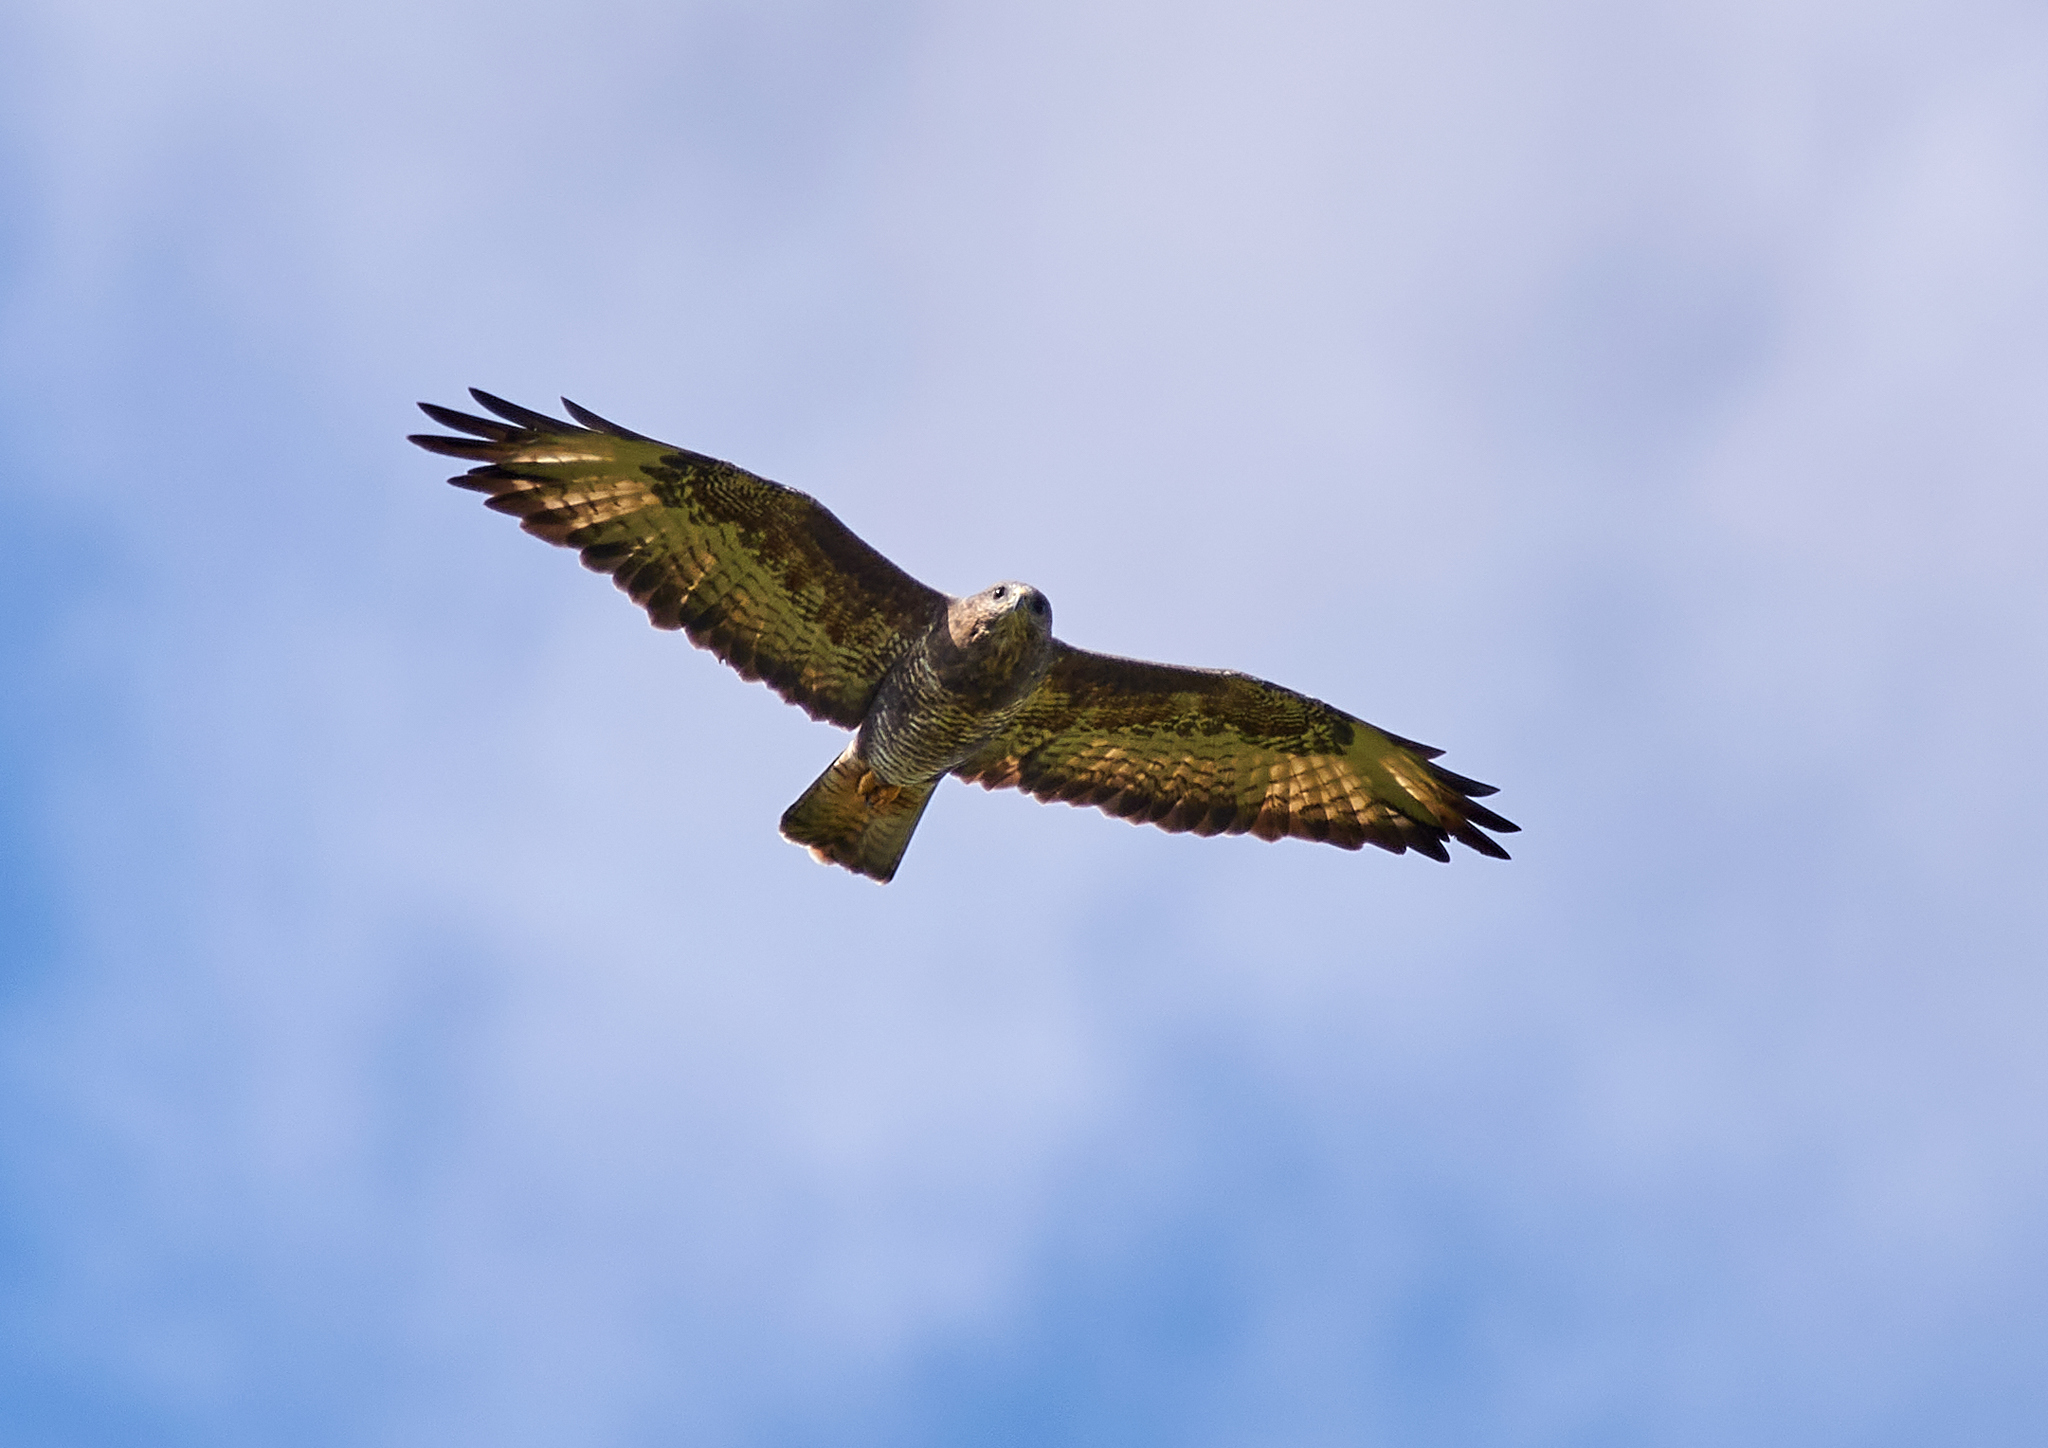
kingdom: Animalia
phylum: Chordata
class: Aves
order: Accipitriformes
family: Accipitridae
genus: Buteo
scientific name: Buteo buteo
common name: Common buzzard
